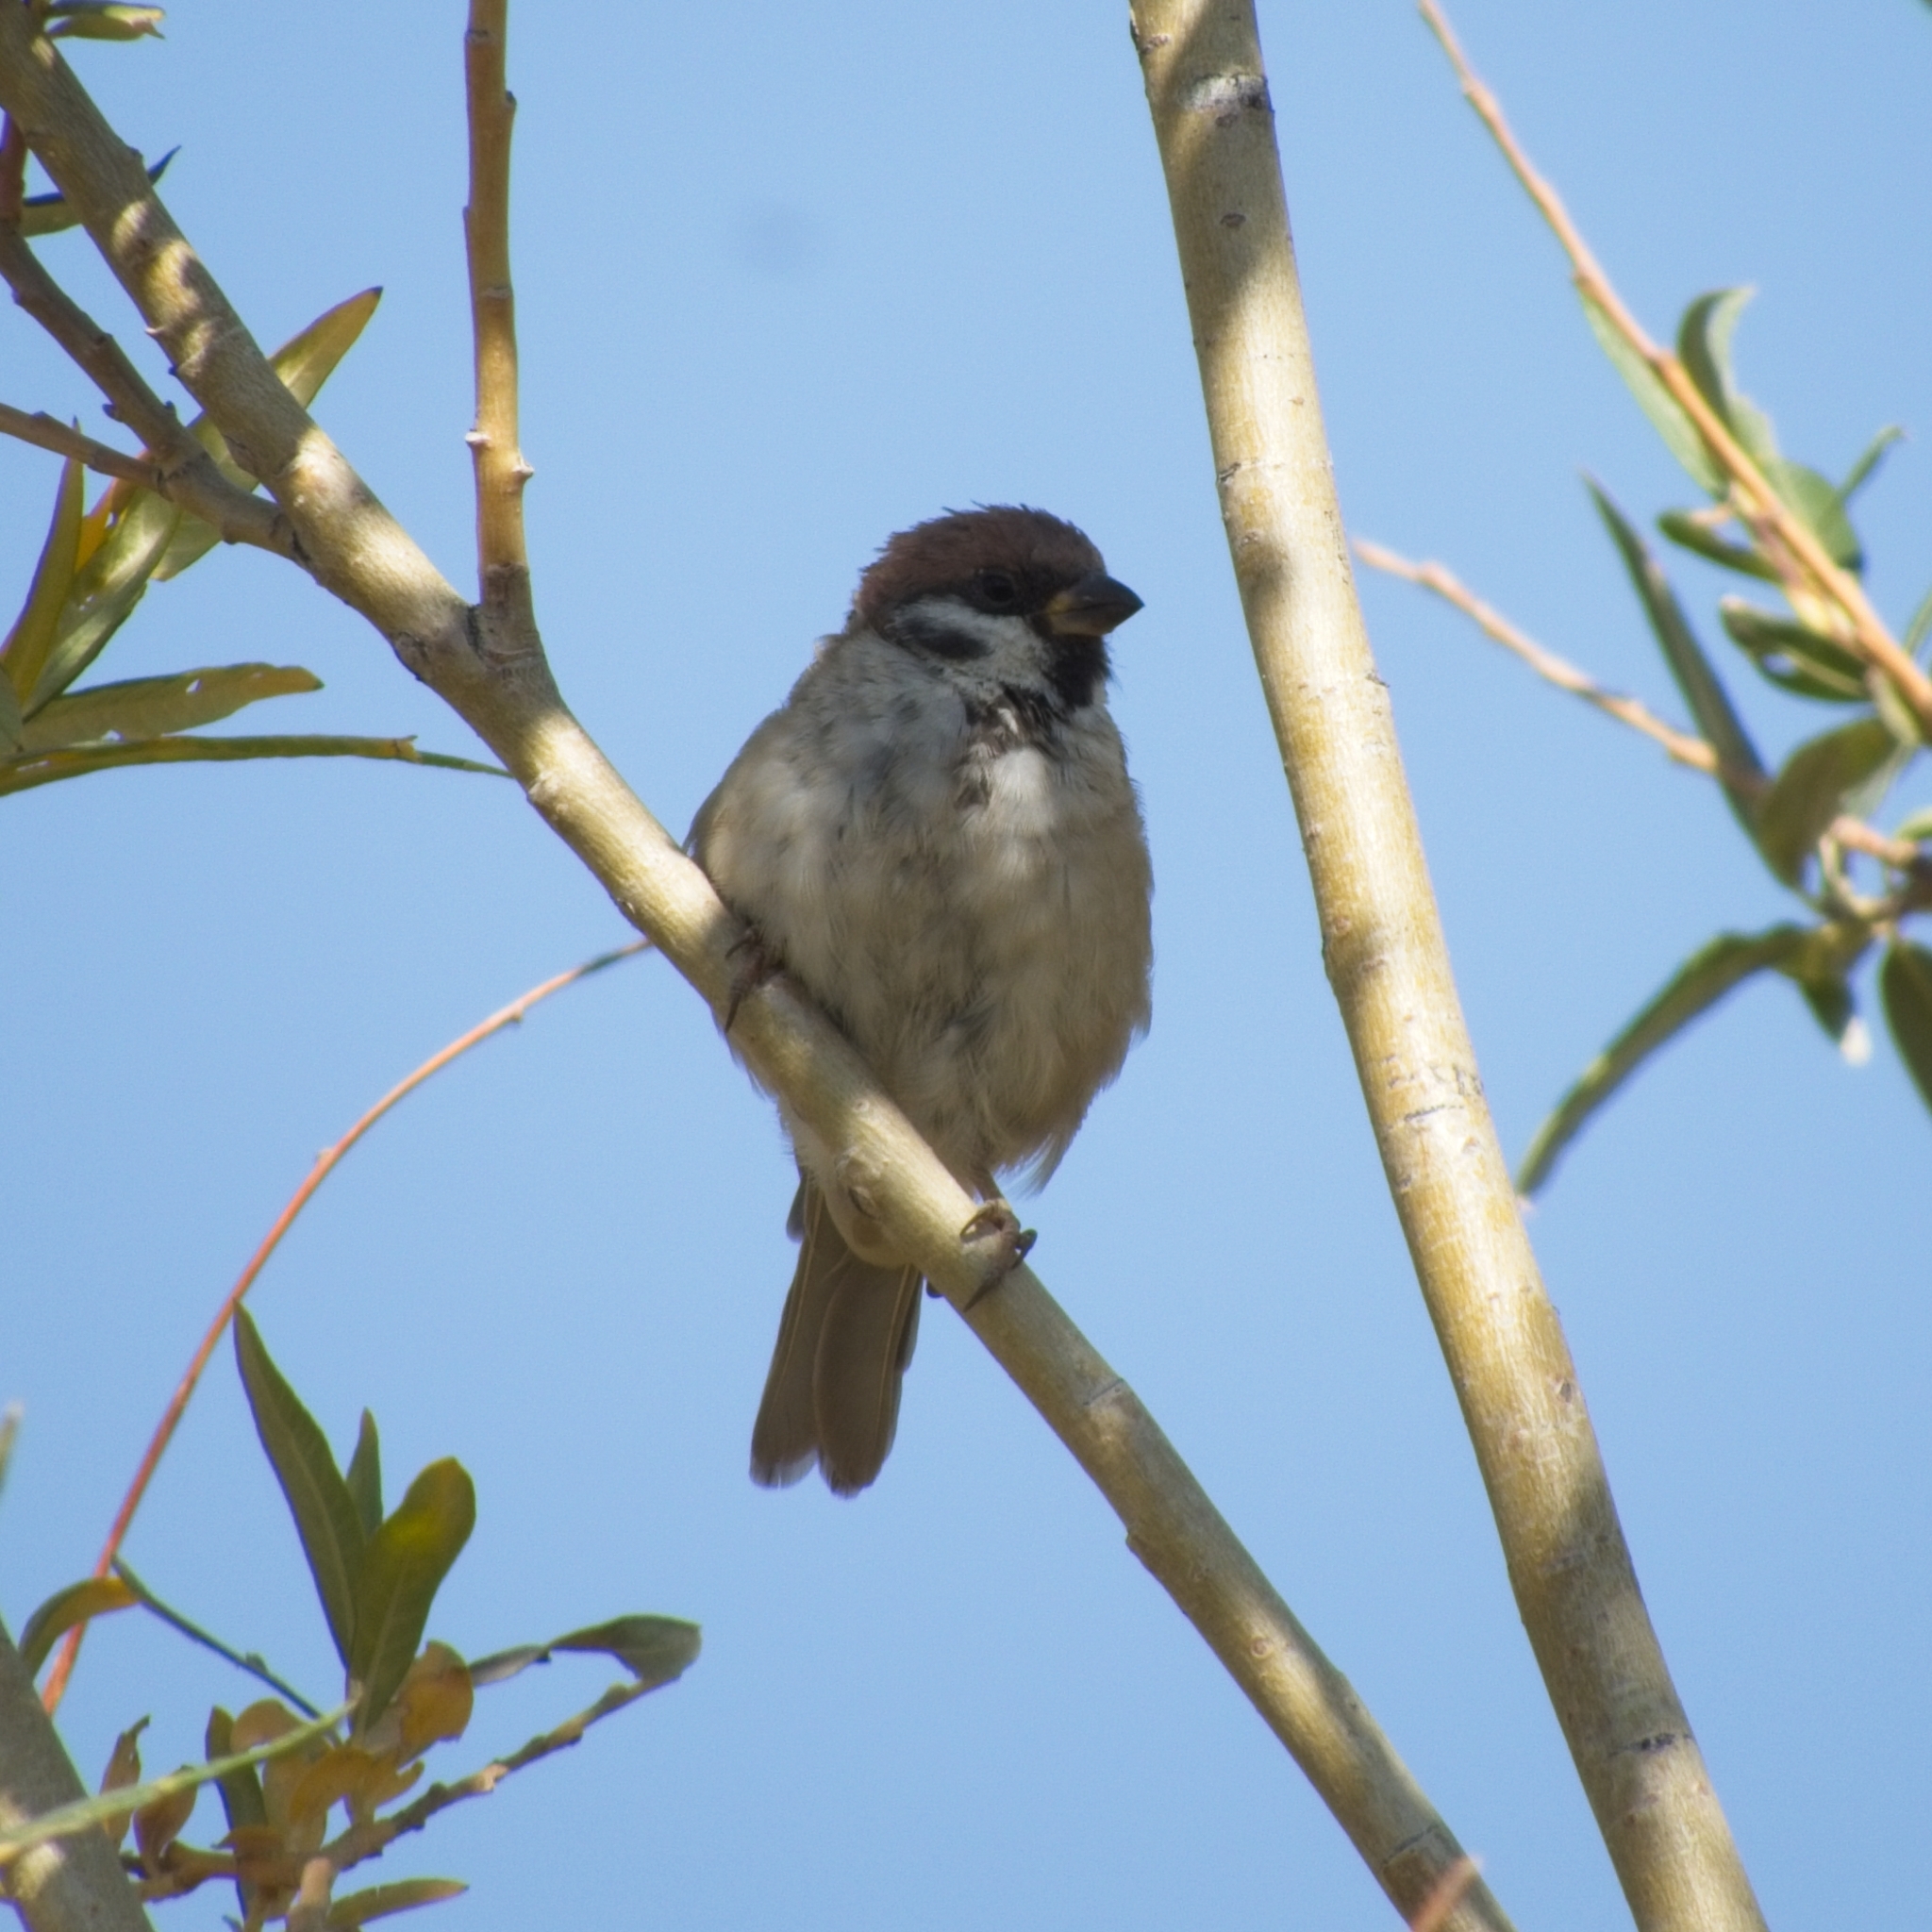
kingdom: Animalia
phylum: Chordata
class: Aves
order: Passeriformes
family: Passeridae
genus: Passer
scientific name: Passer montanus
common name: Eurasian tree sparrow
